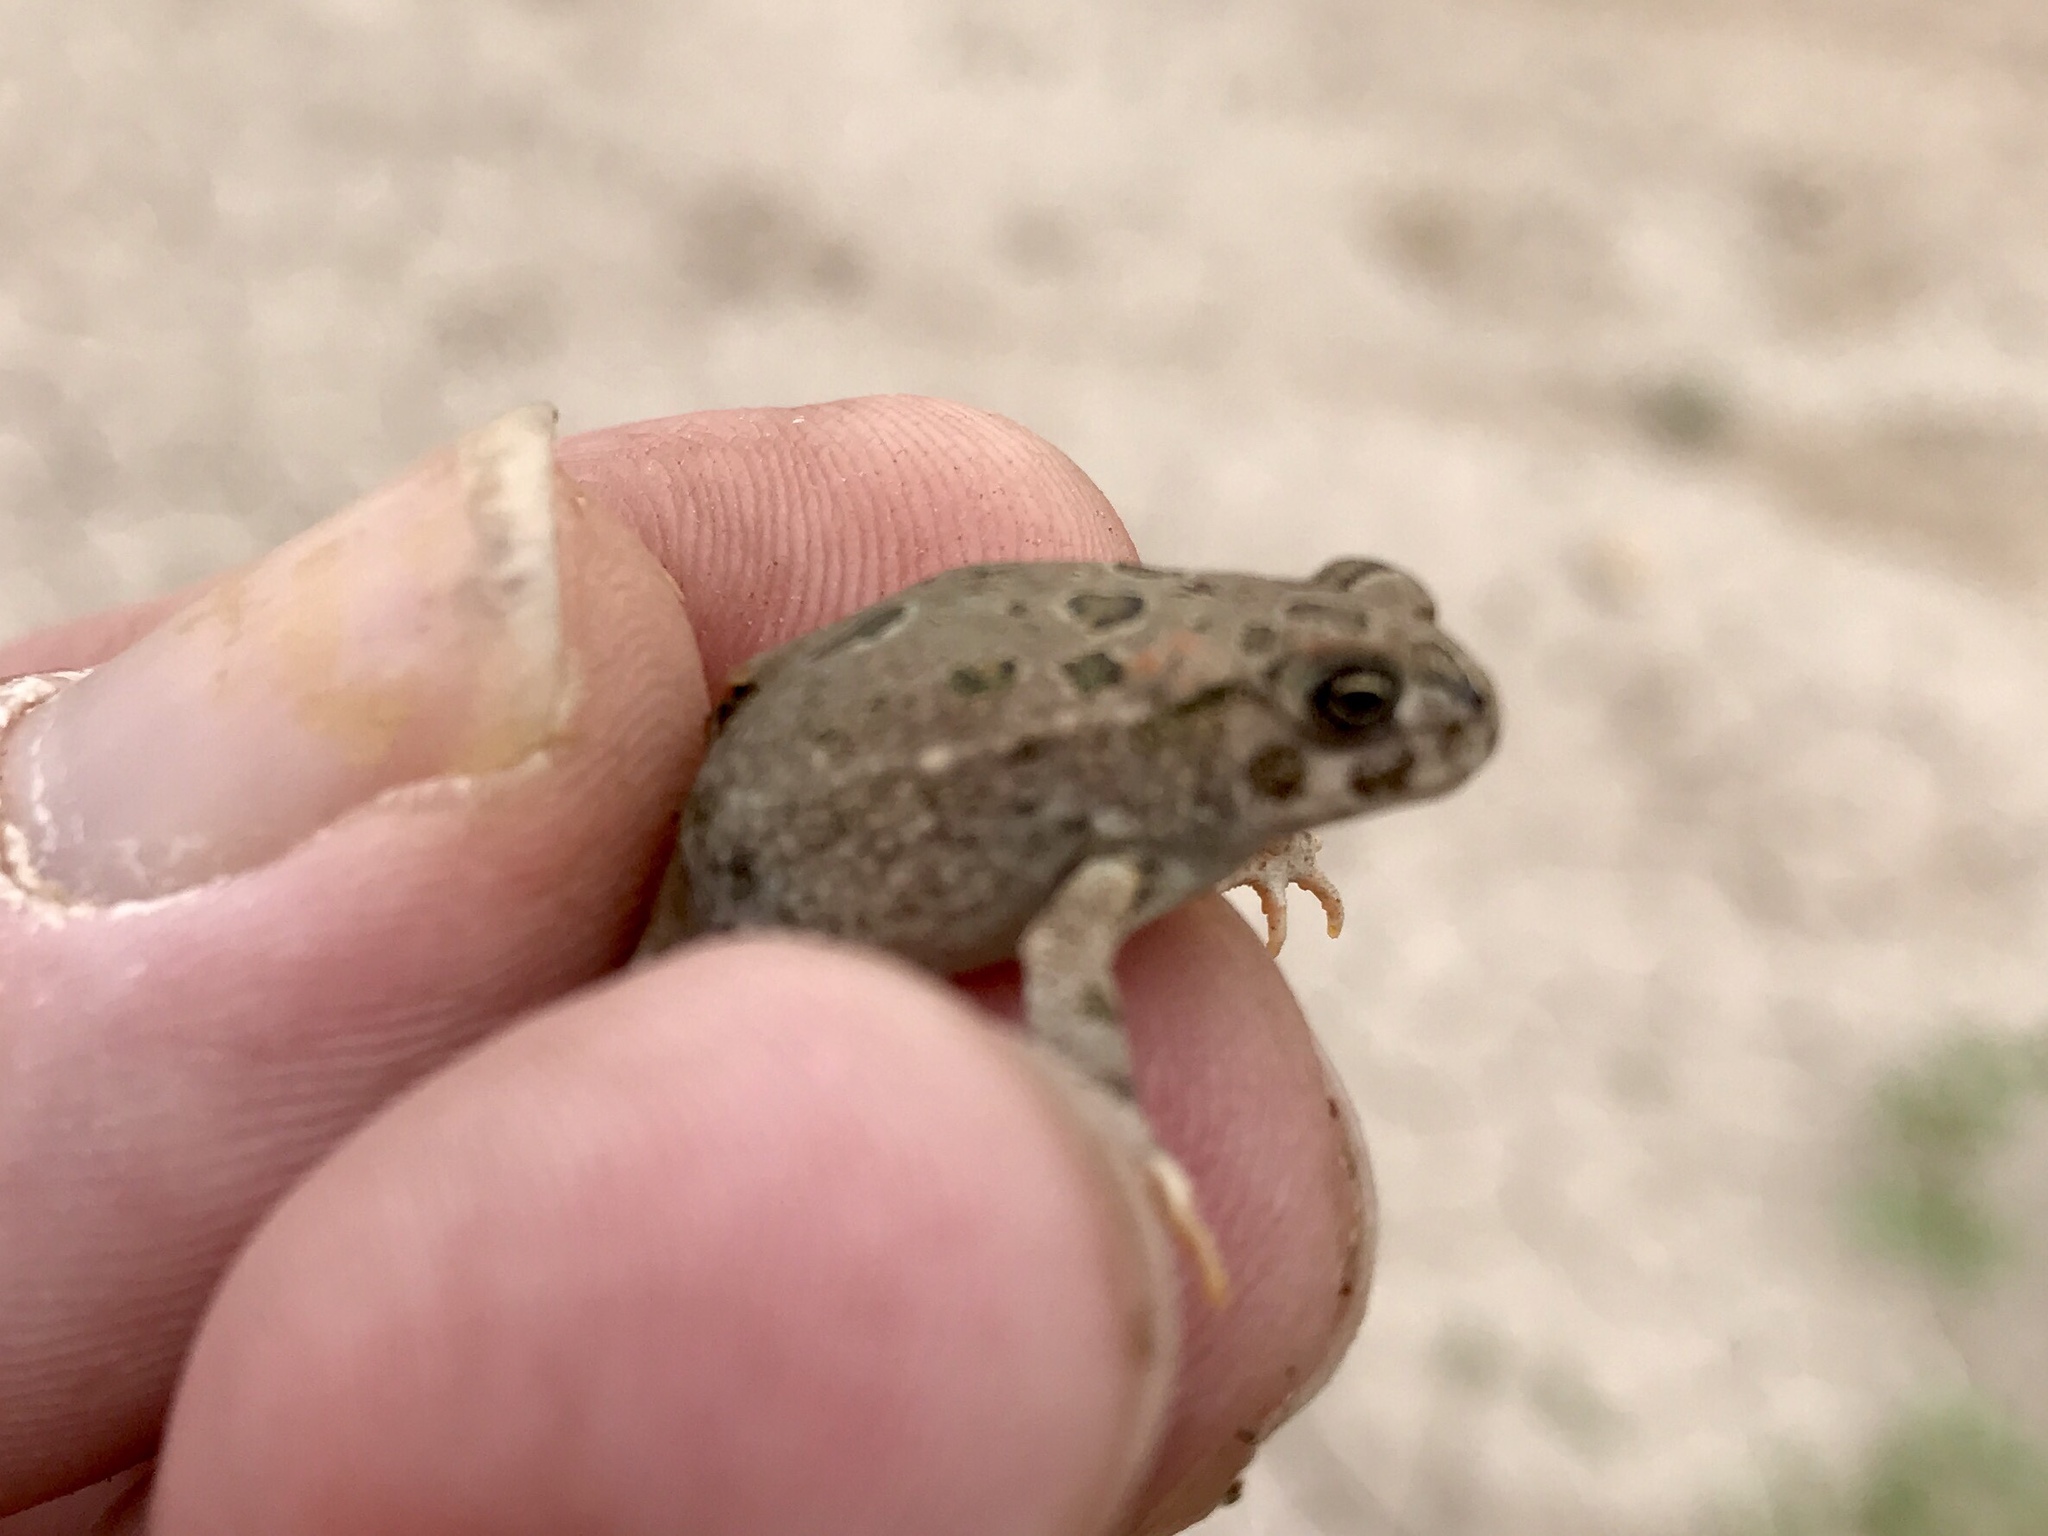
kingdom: Animalia
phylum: Chordata
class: Amphibia
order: Anura
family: Bufonidae
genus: Anaxyrus
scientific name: Anaxyrus cognatus
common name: Great plains toad
